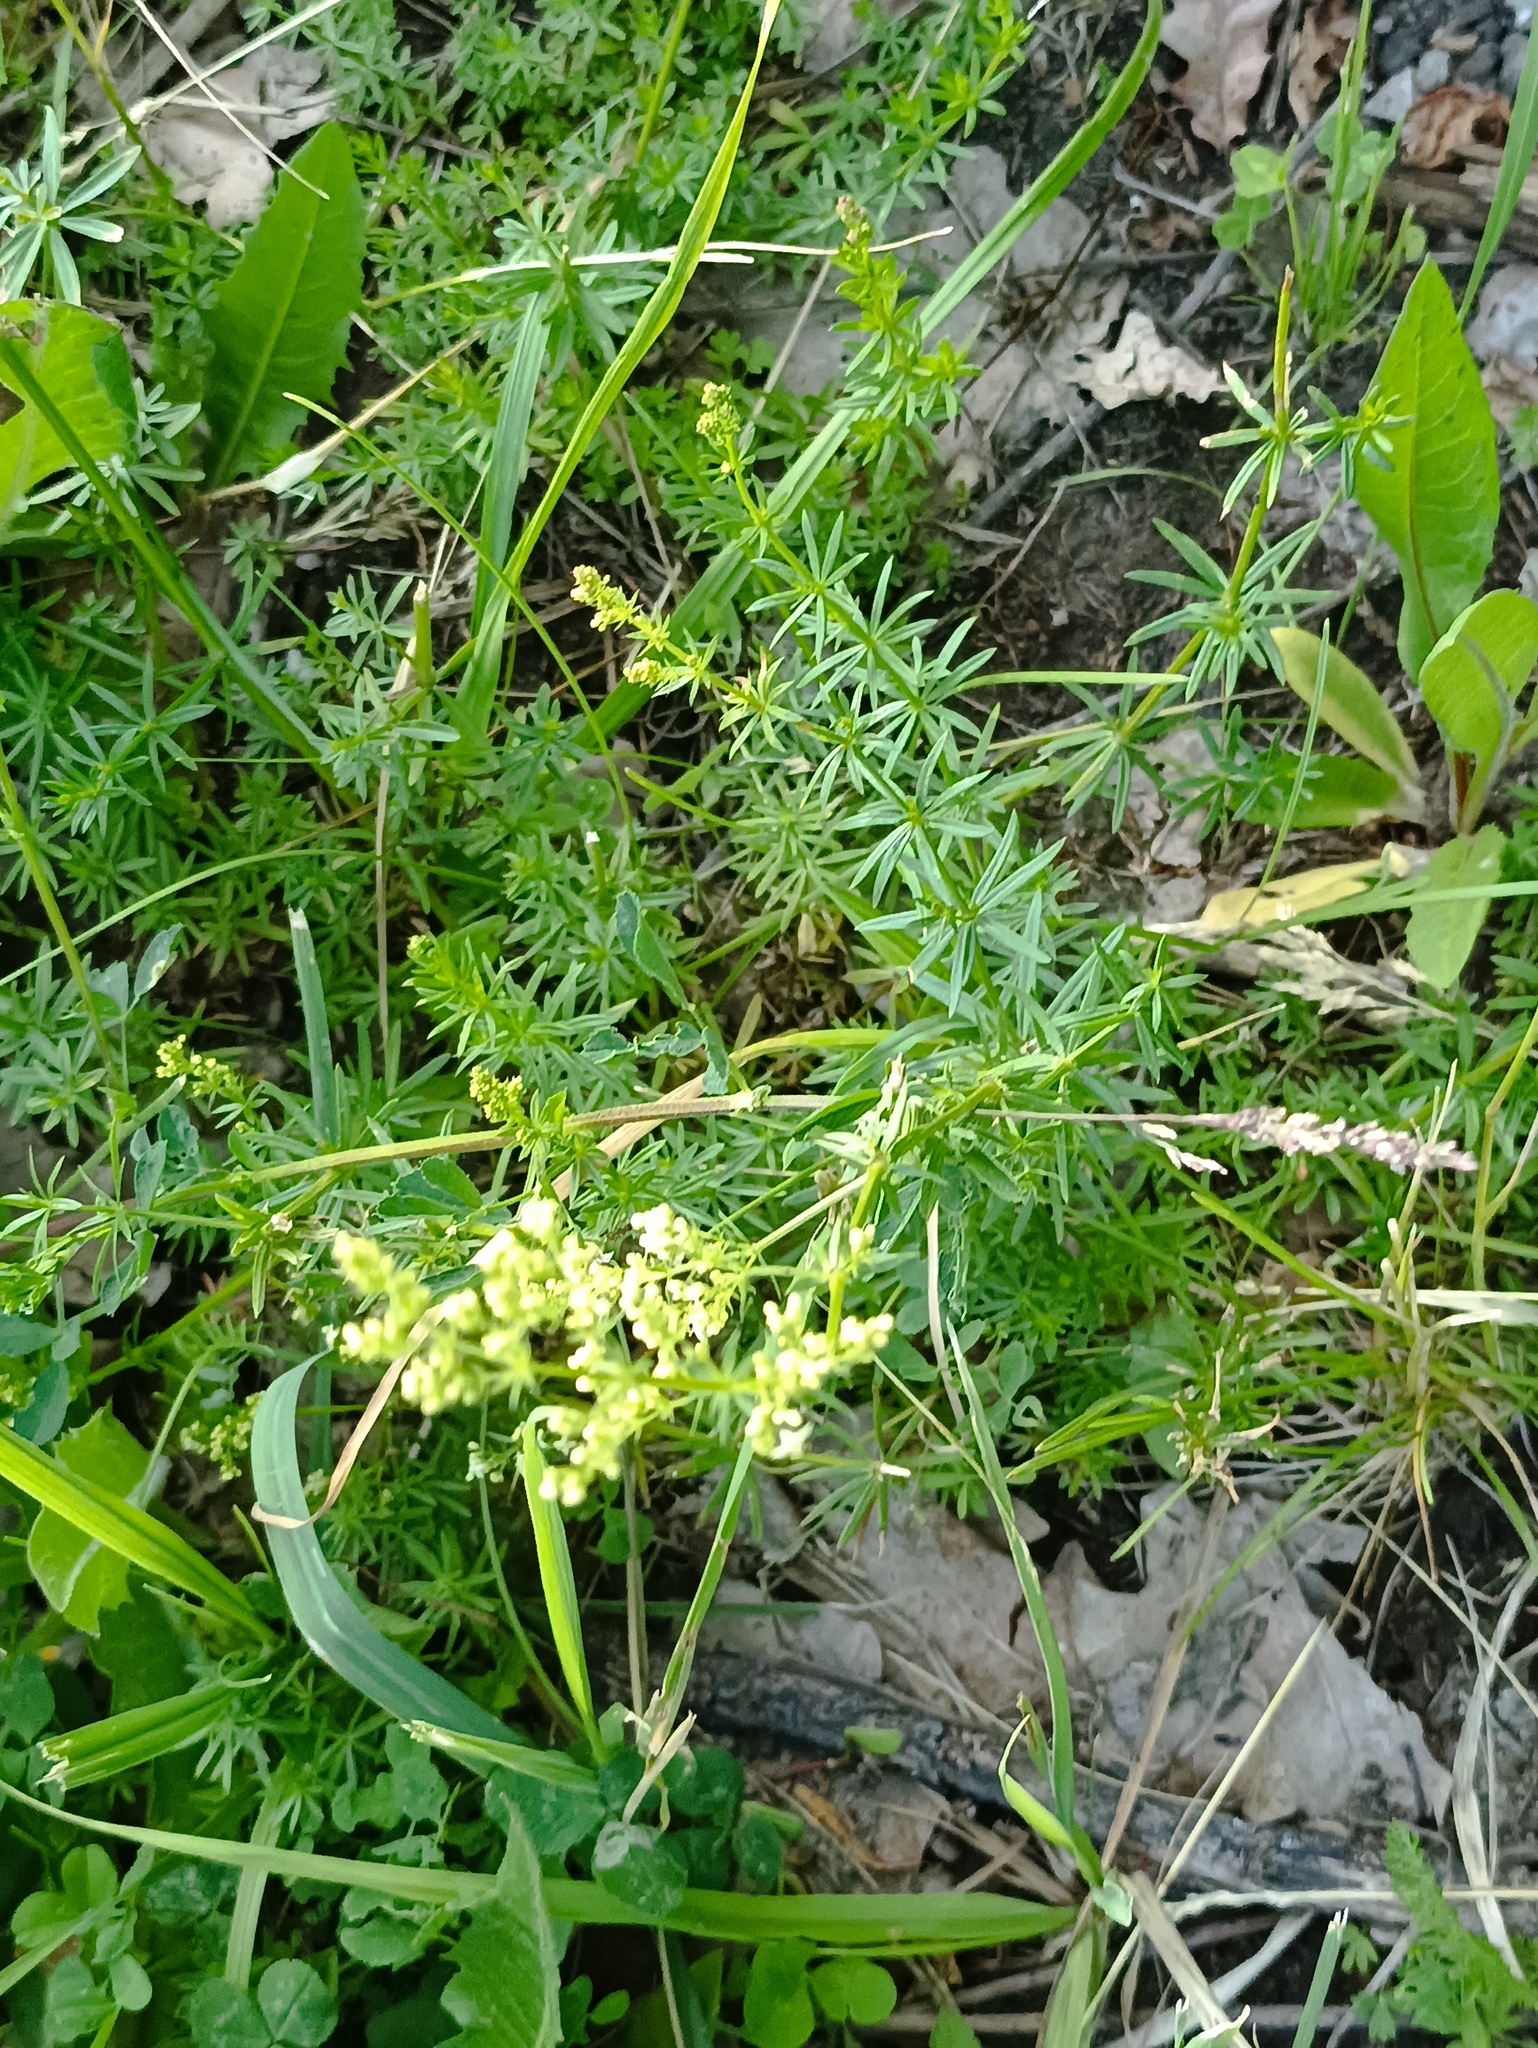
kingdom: Plantae
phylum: Tracheophyta
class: Magnoliopsida
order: Gentianales
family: Rubiaceae
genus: Galium
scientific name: Galium mollugo
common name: Hedge bedstraw
